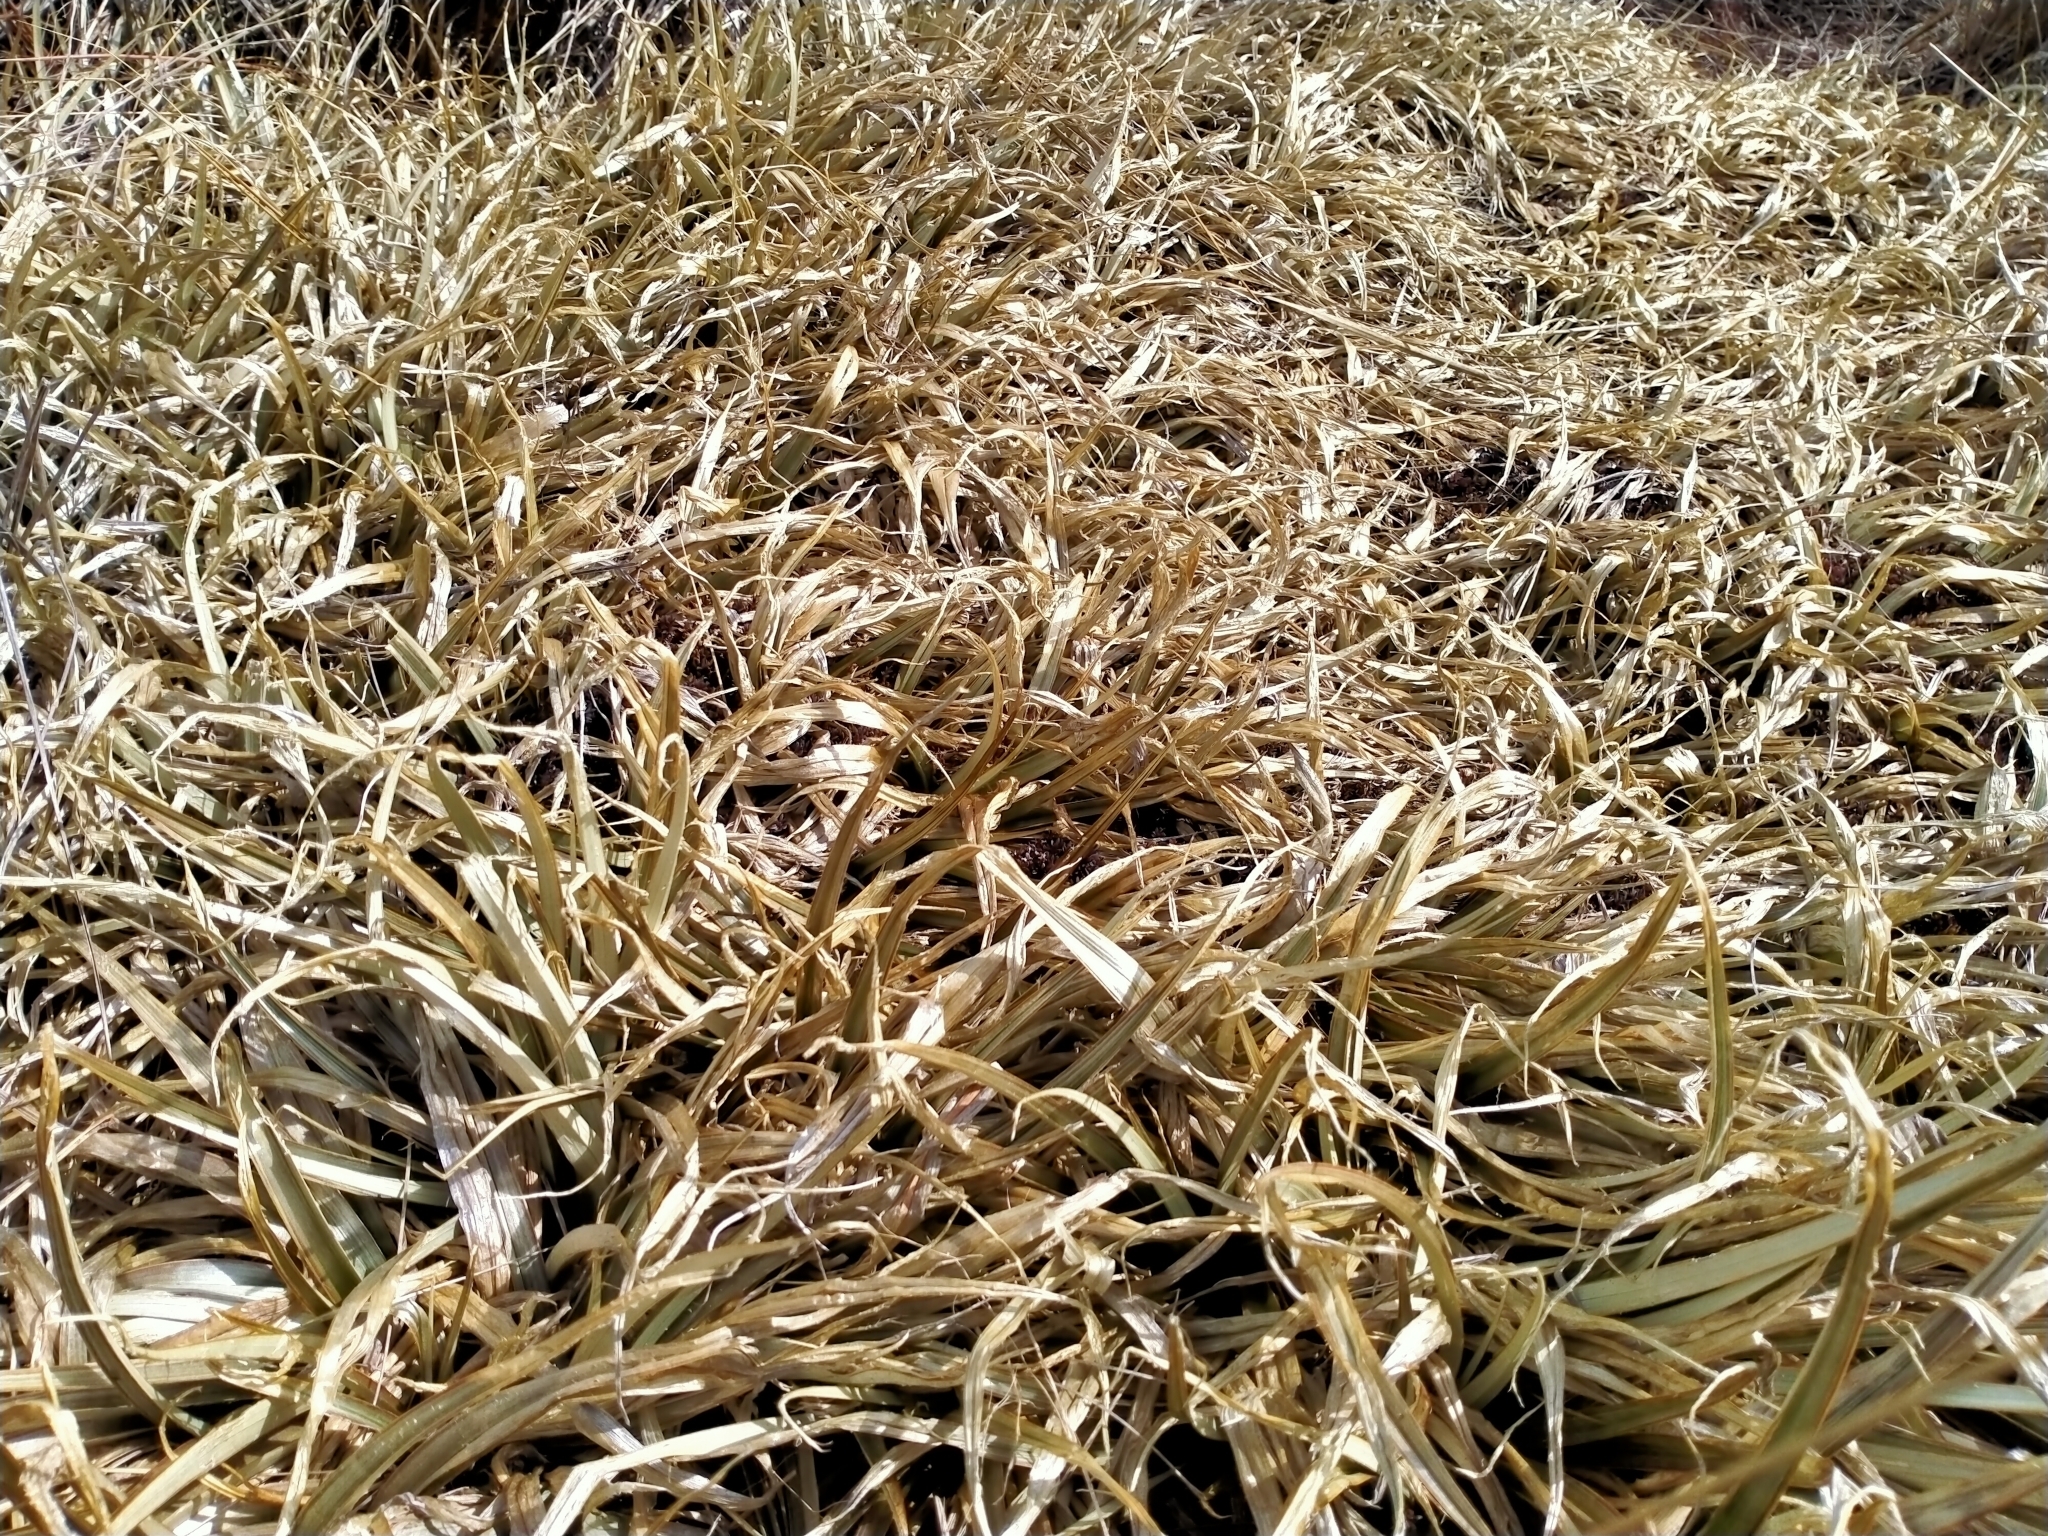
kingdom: Plantae
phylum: Tracheophyta
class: Liliopsida
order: Asparagales
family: Asteliaceae
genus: Astelia
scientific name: Astelia nivicola
